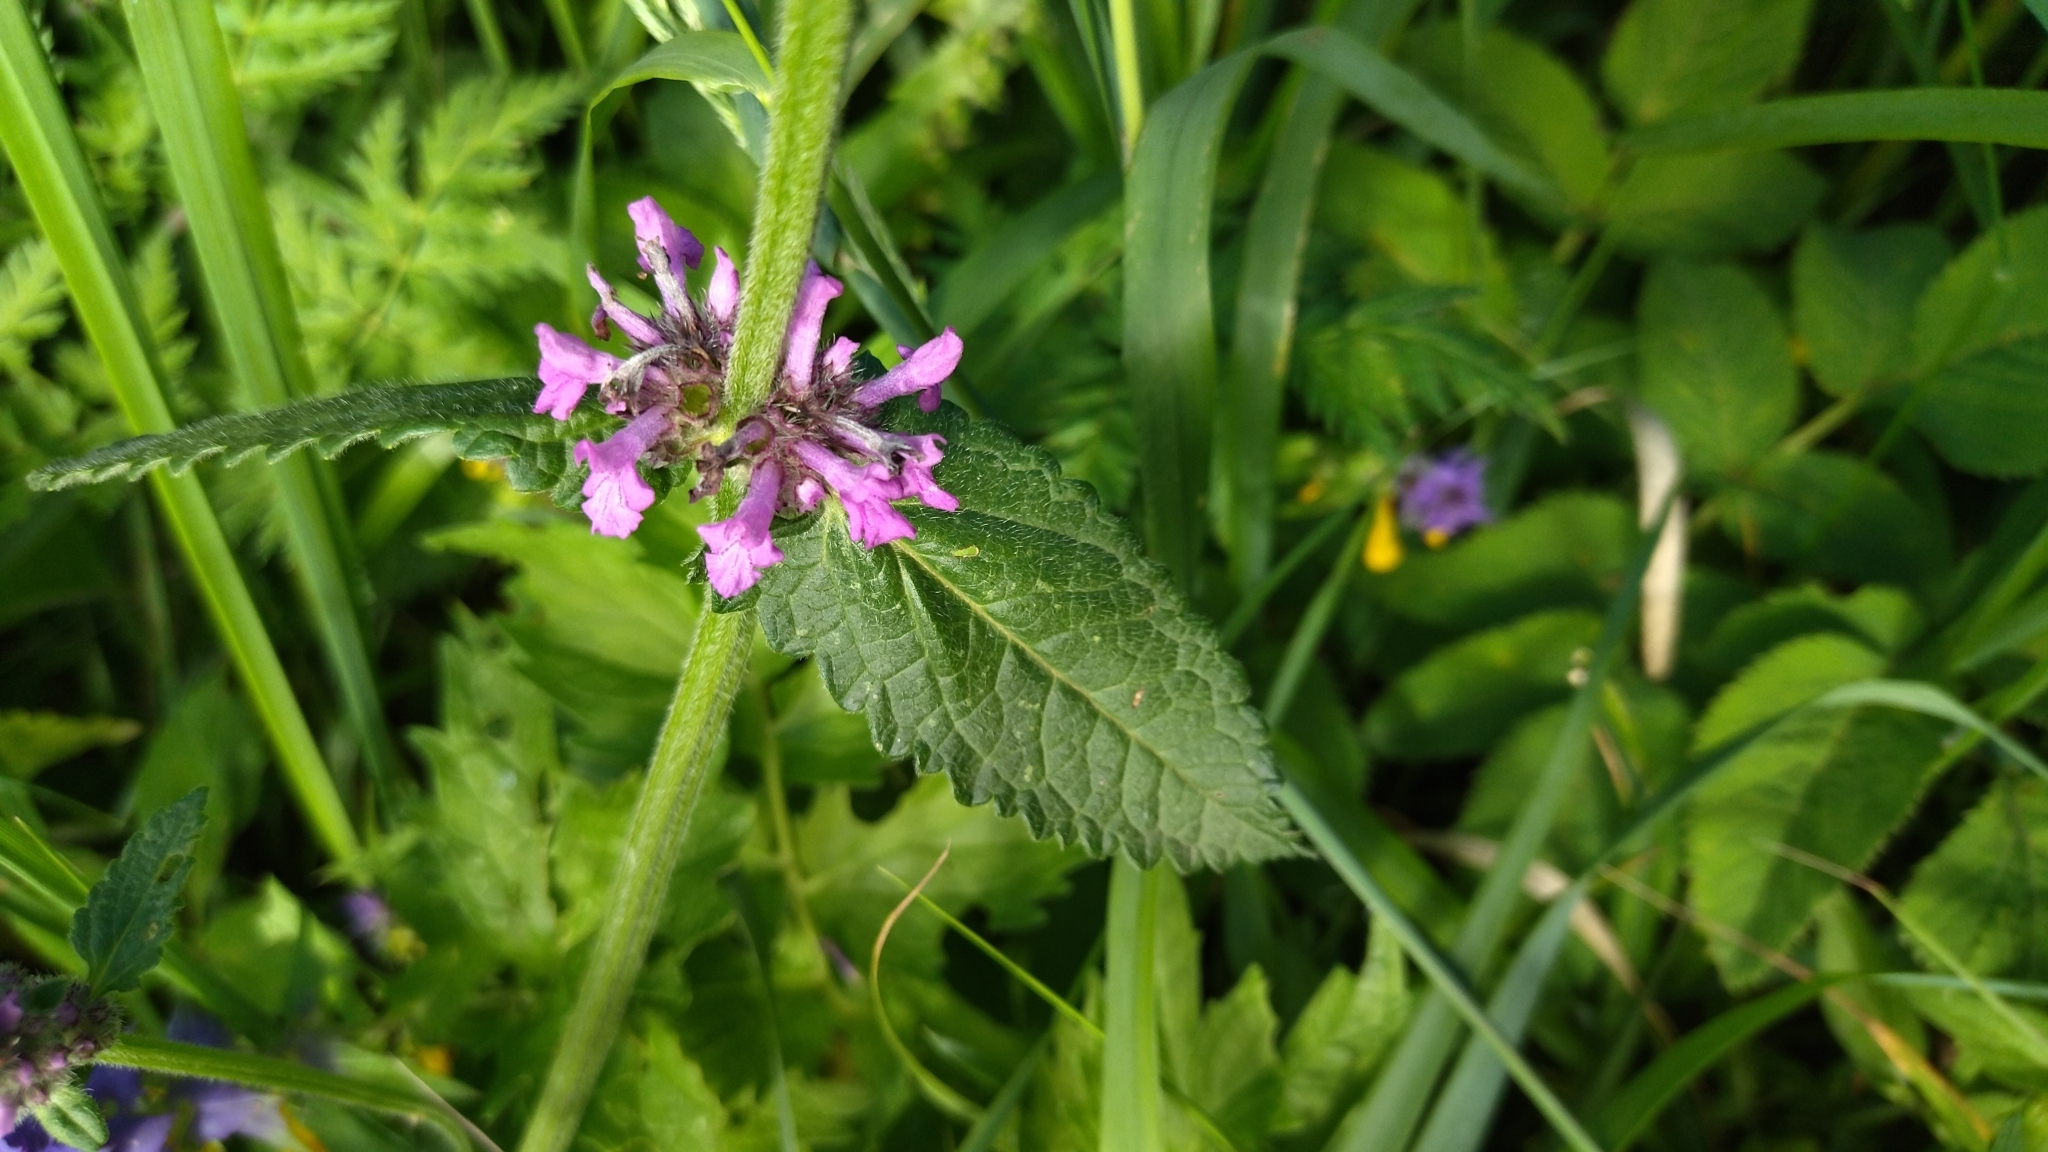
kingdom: Plantae
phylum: Tracheophyta
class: Magnoliopsida
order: Lamiales
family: Lamiaceae
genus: Betonica
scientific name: Betonica officinalis
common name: Bishop's-wort
